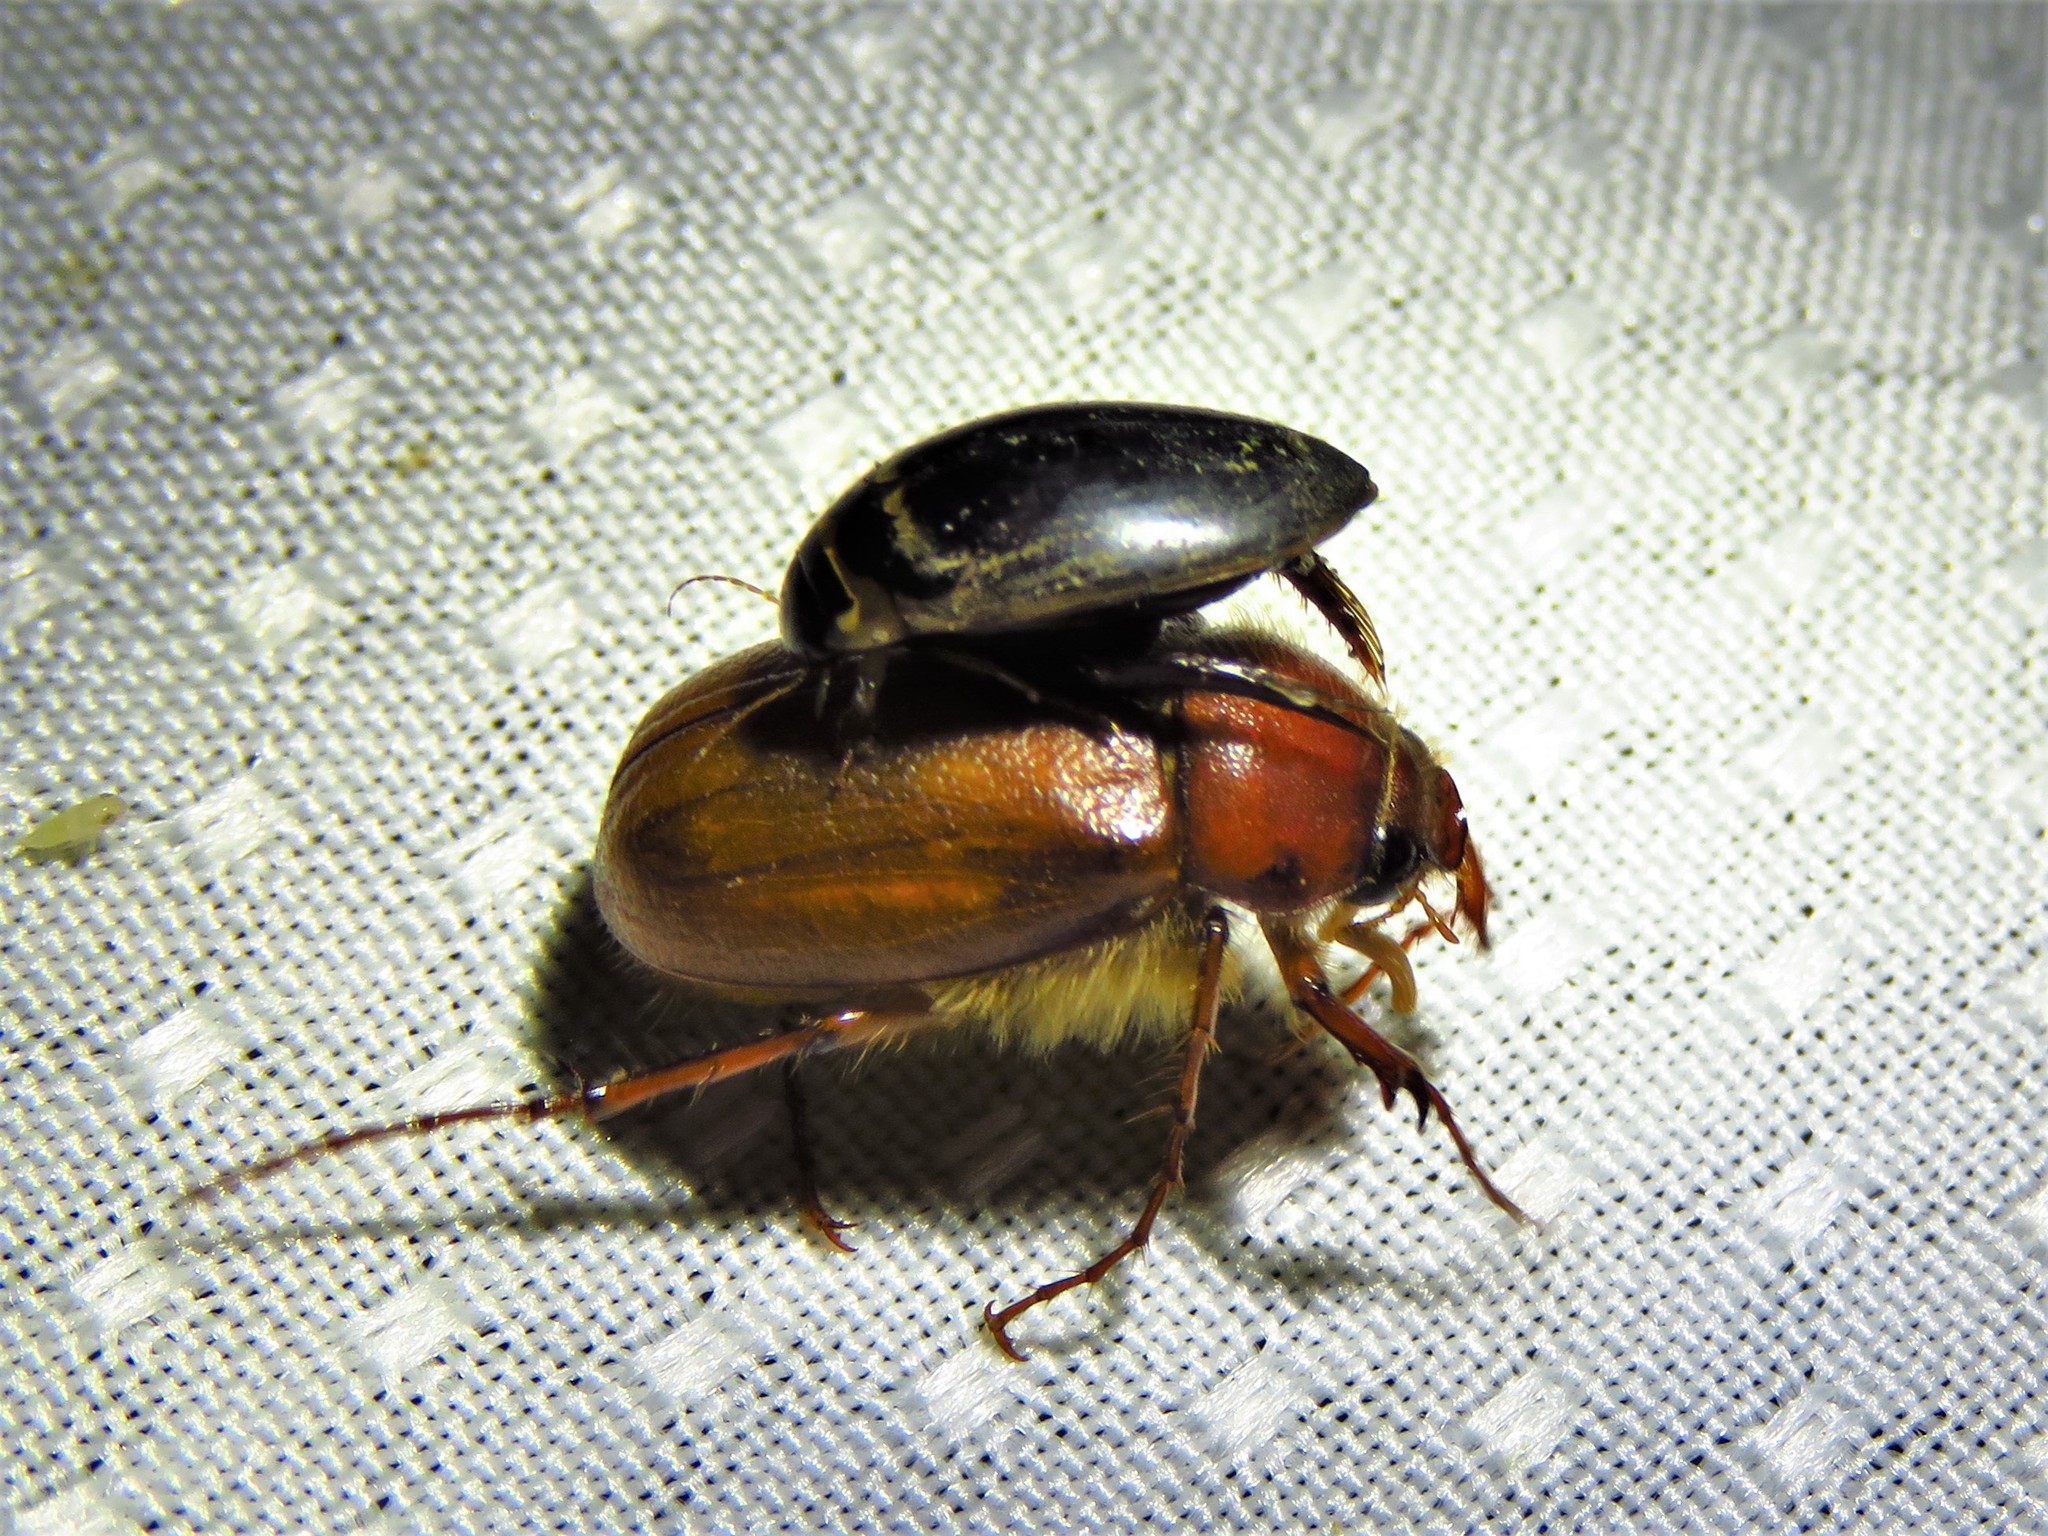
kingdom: Animalia
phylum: Arthropoda
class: Insecta
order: Coleoptera
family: Dytiscidae
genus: Thermonectus
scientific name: Thermonectus basillaris
